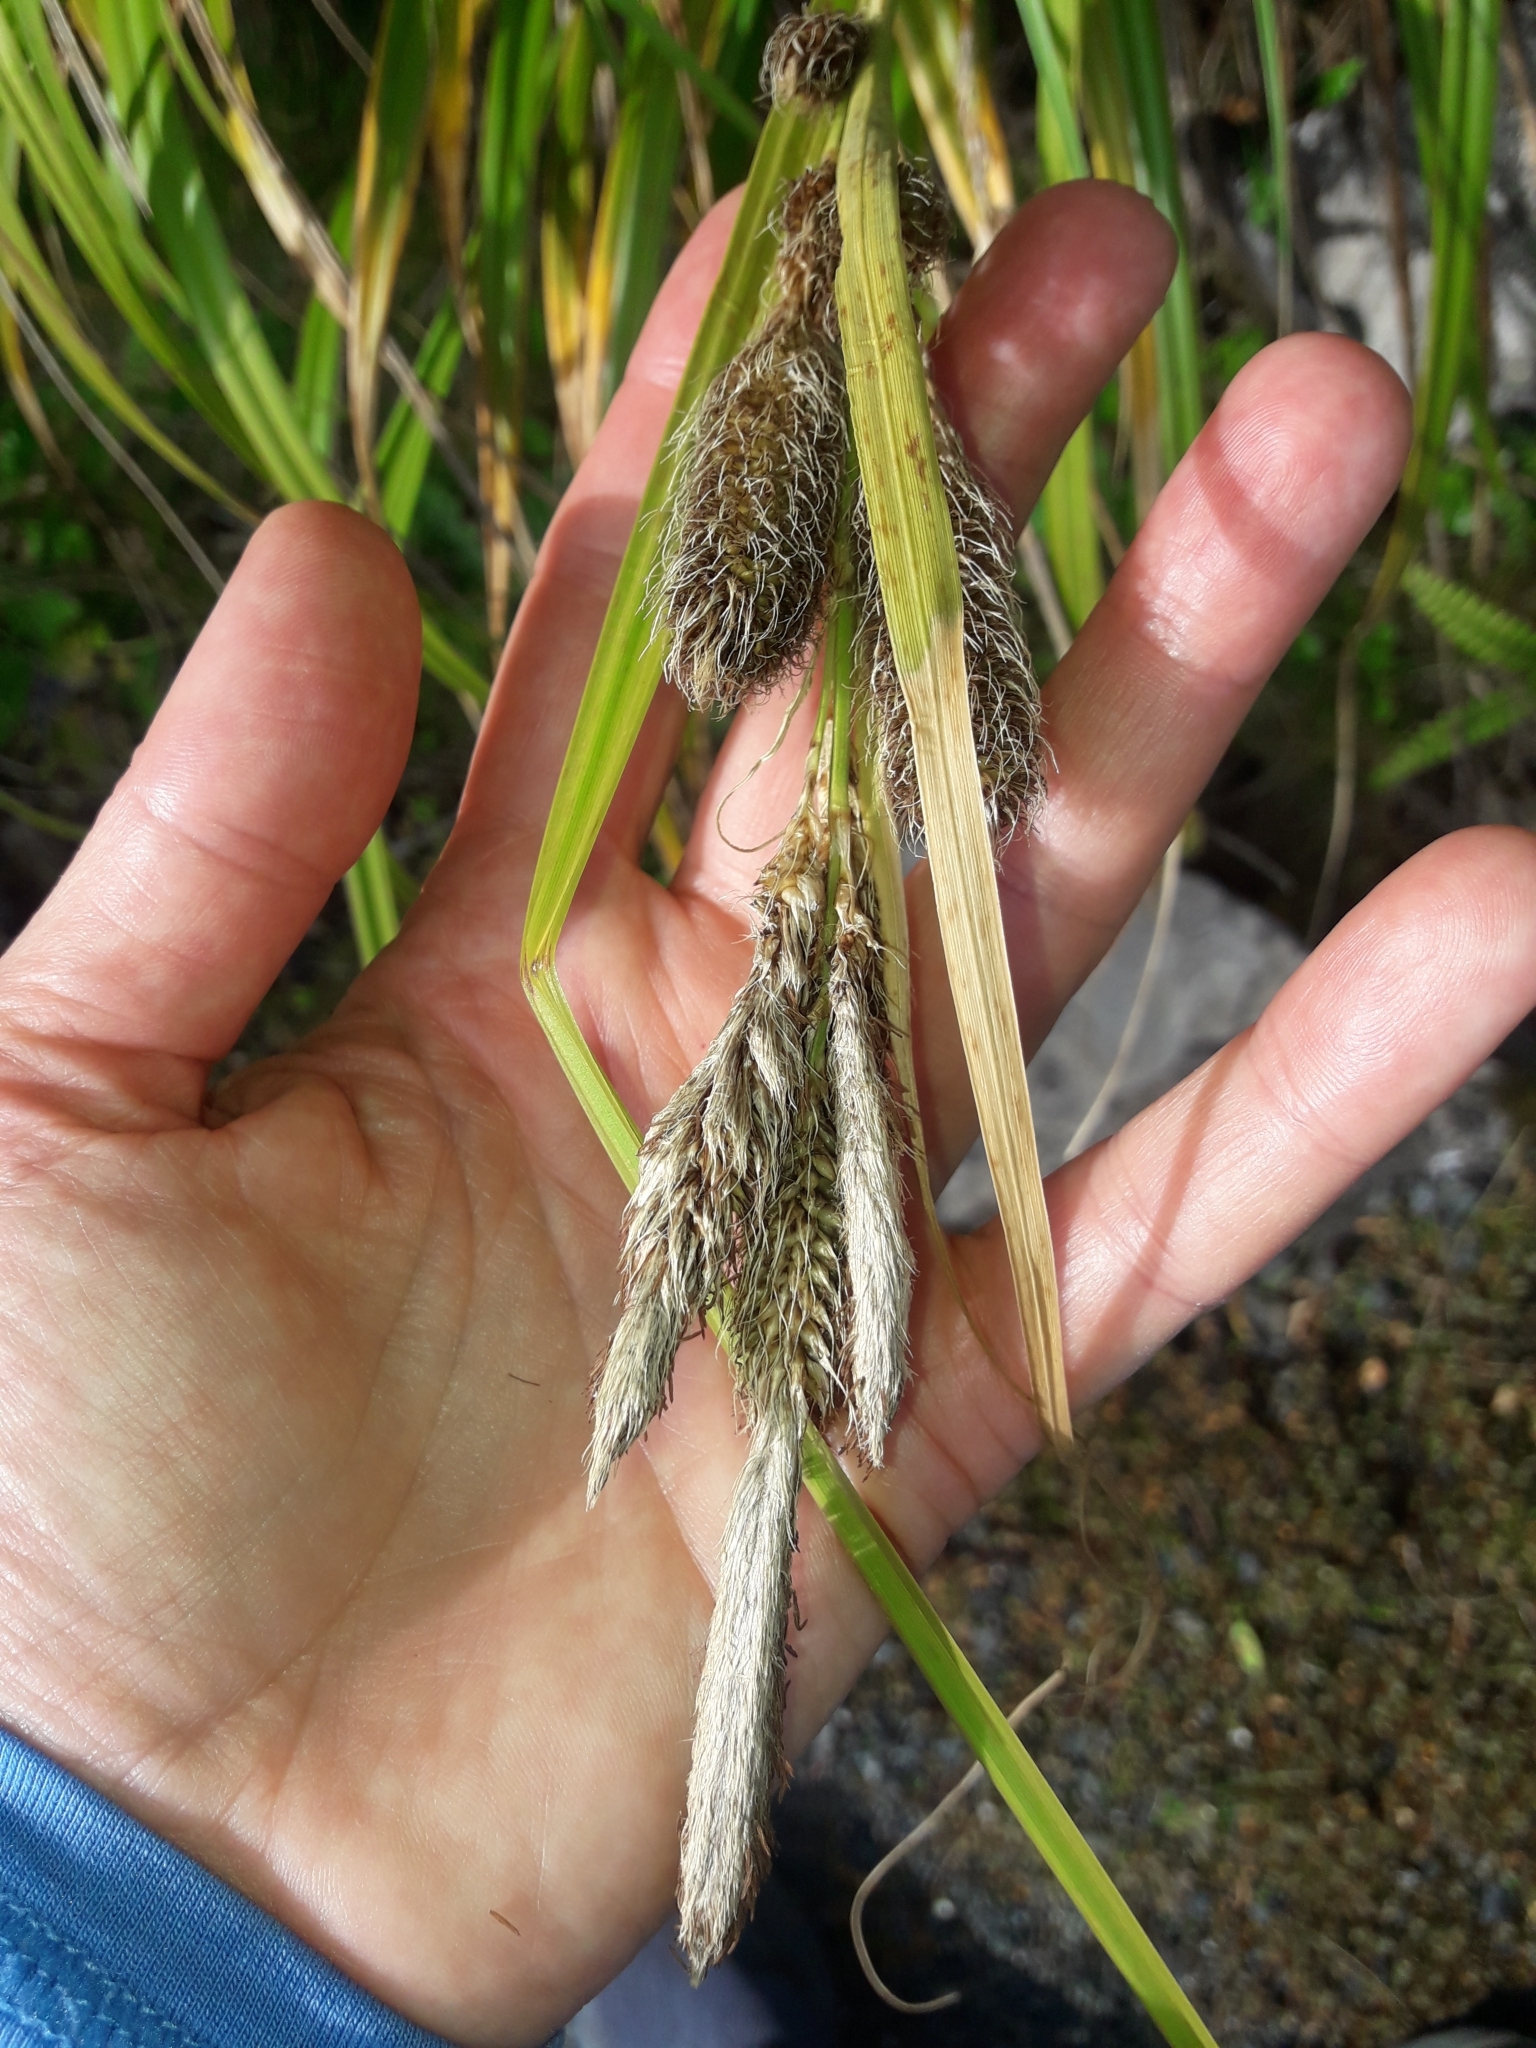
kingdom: Plantae
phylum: Tracheophyta
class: Liliopsida
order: Poales
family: Cyperaceae
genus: Carex
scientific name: Carex trifida
